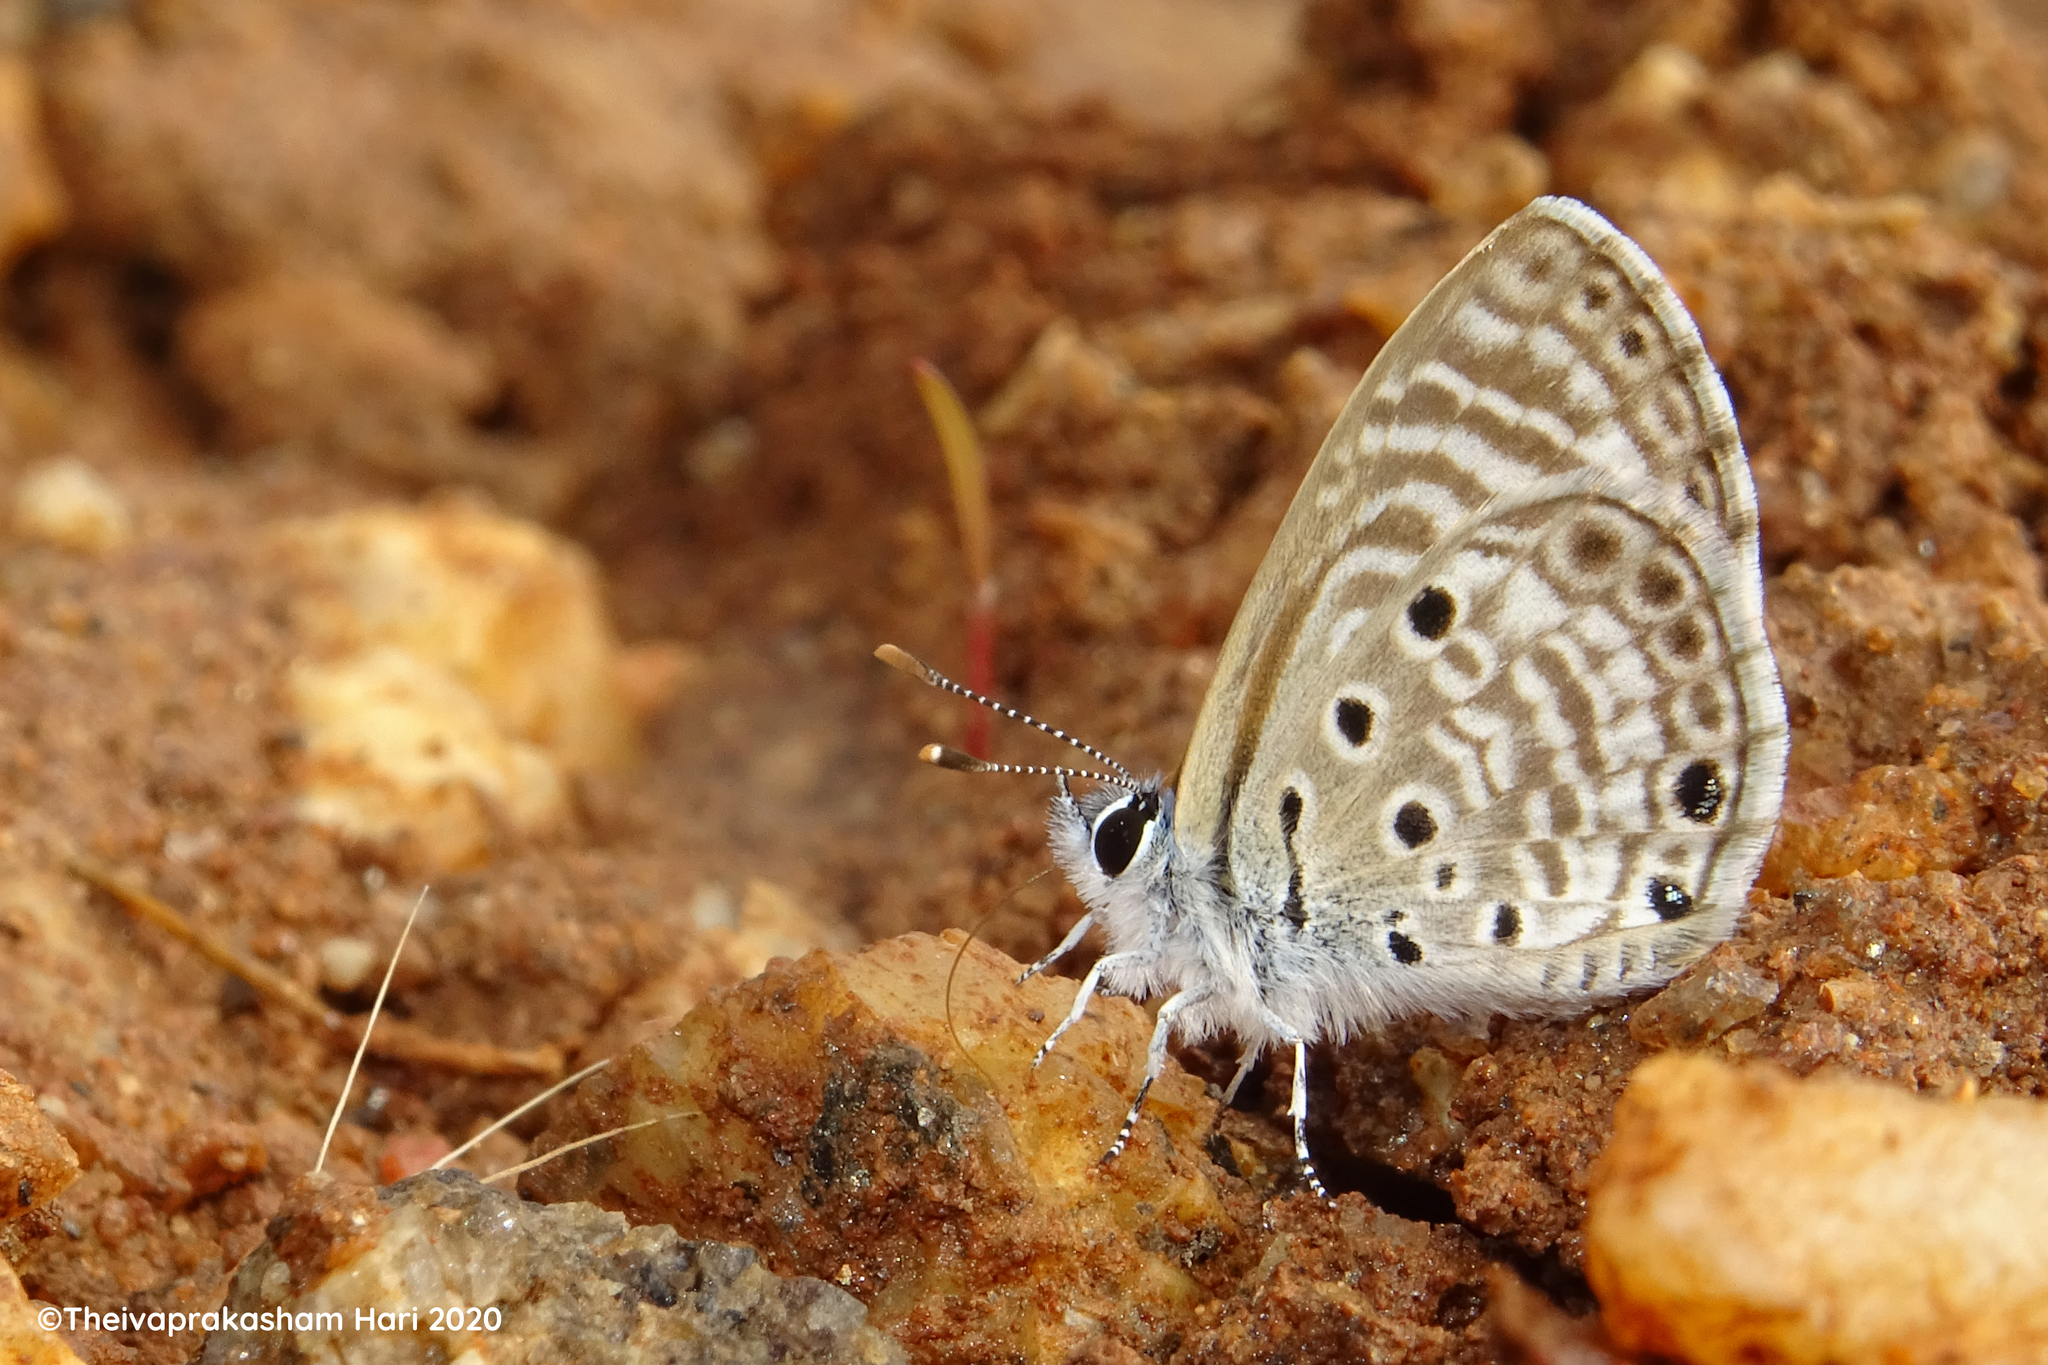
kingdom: Animalia
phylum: Arthropoda
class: Insecta
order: Lepidoptera
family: Lycaenidae
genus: Azanus
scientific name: Azanus jesous
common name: African babul blue
